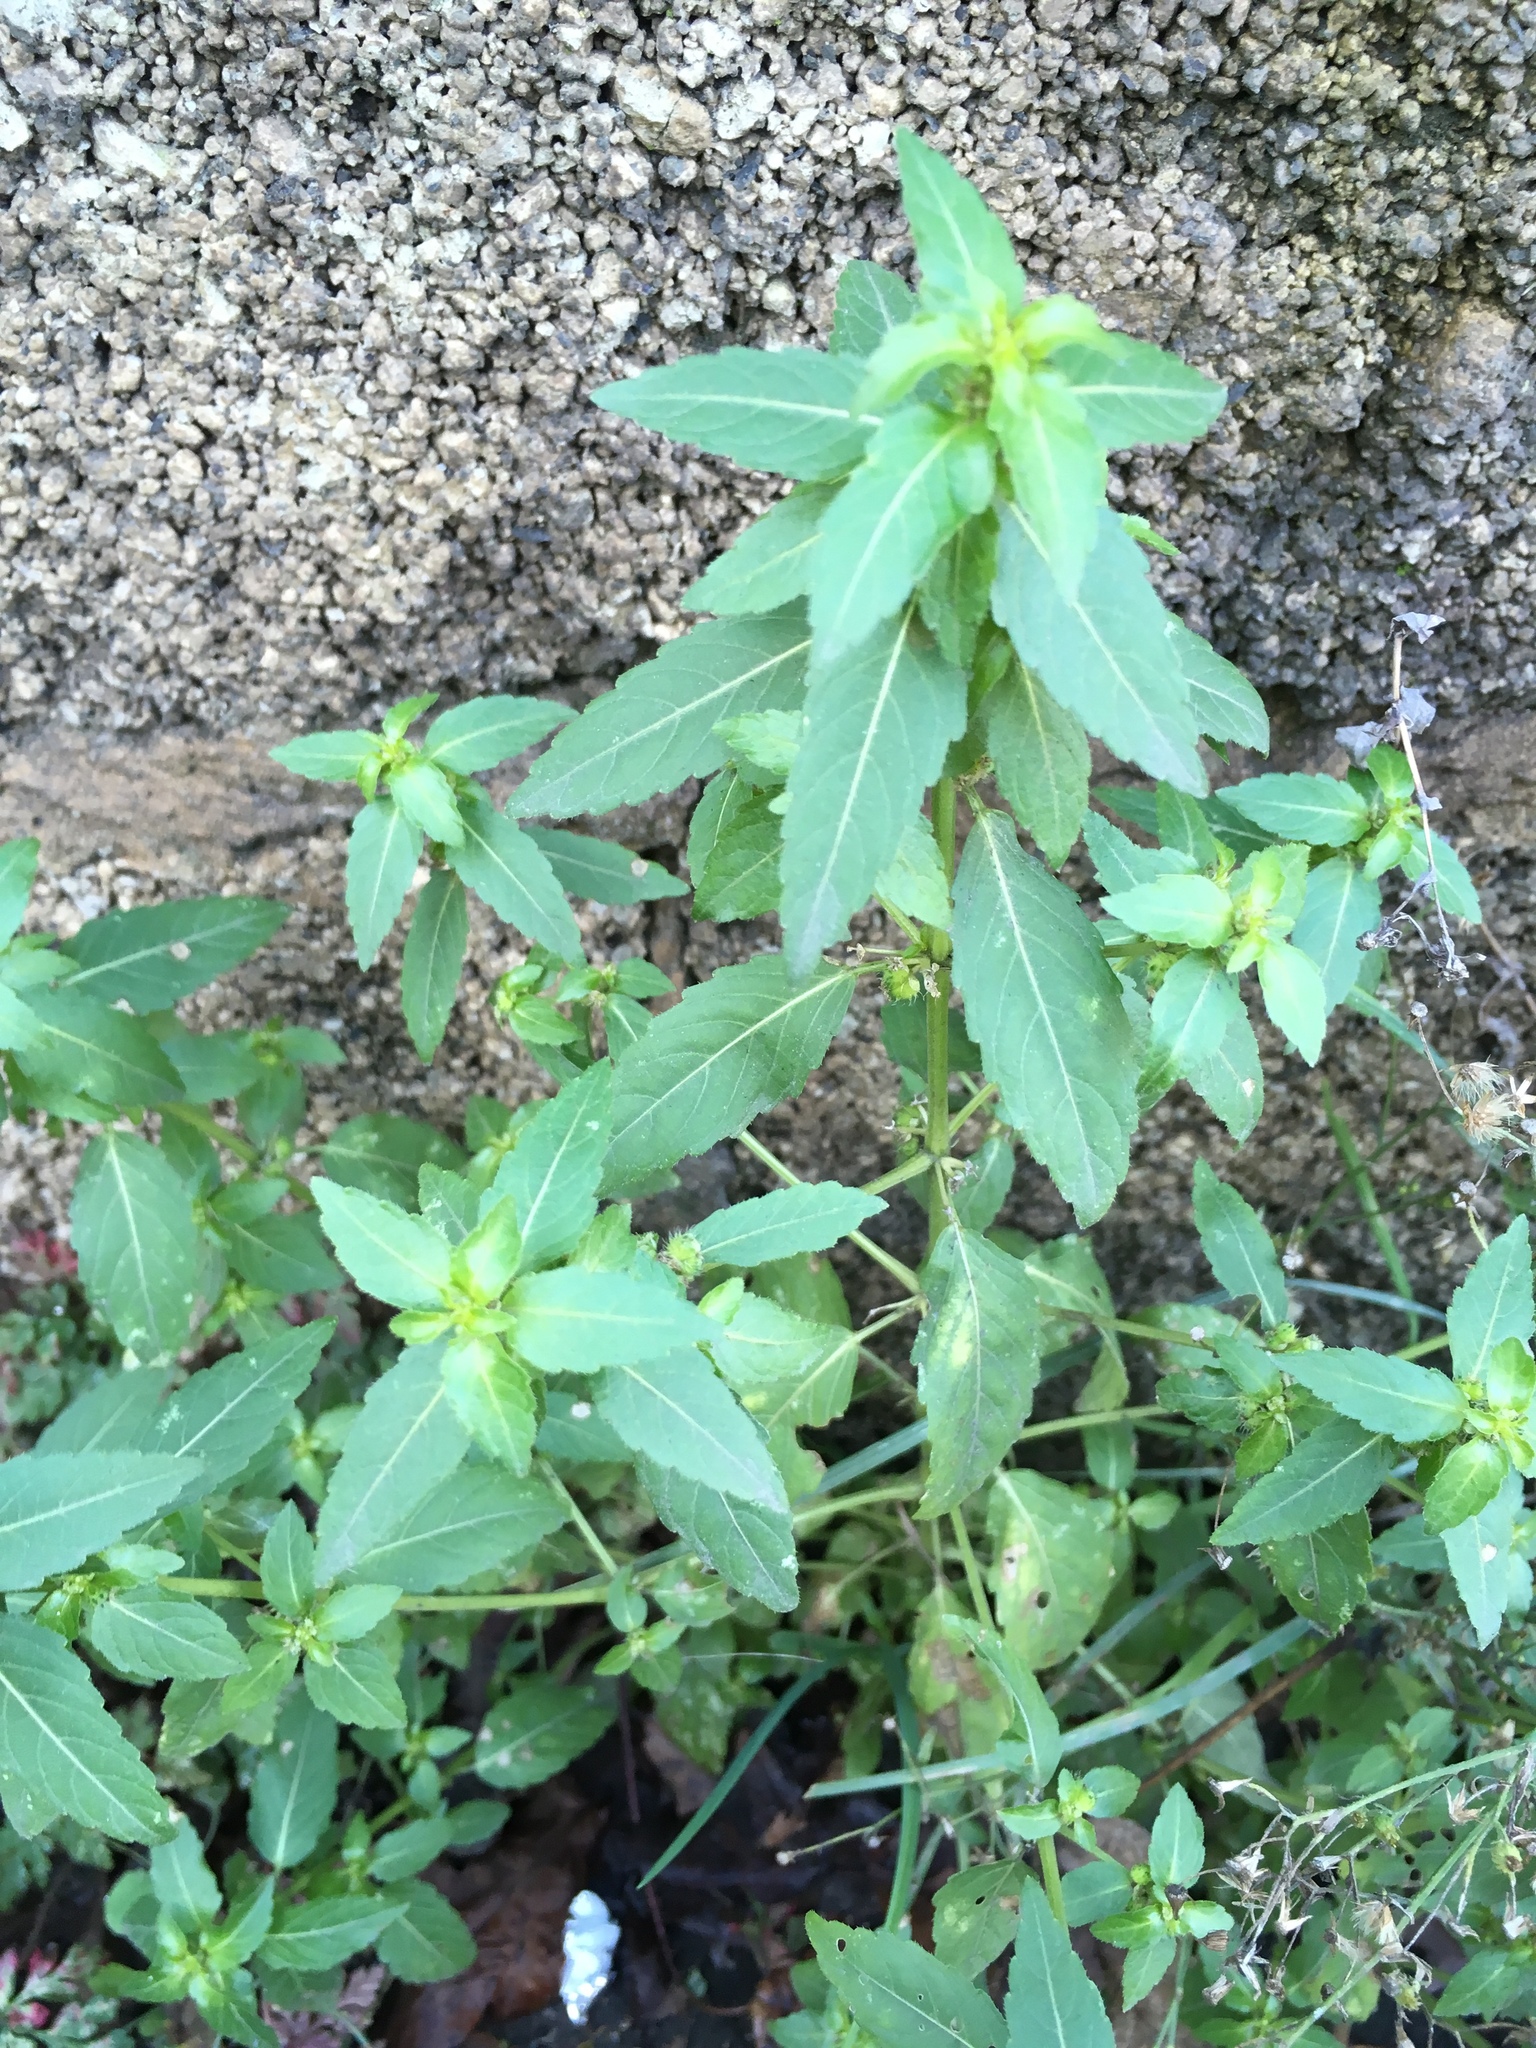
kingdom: Plantae
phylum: Tracheophyta
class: Magnoliopsida
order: Malpighiales
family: Euphorbiaceae
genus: Mercurialis
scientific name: Mercurialis annua
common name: Annual mercury
